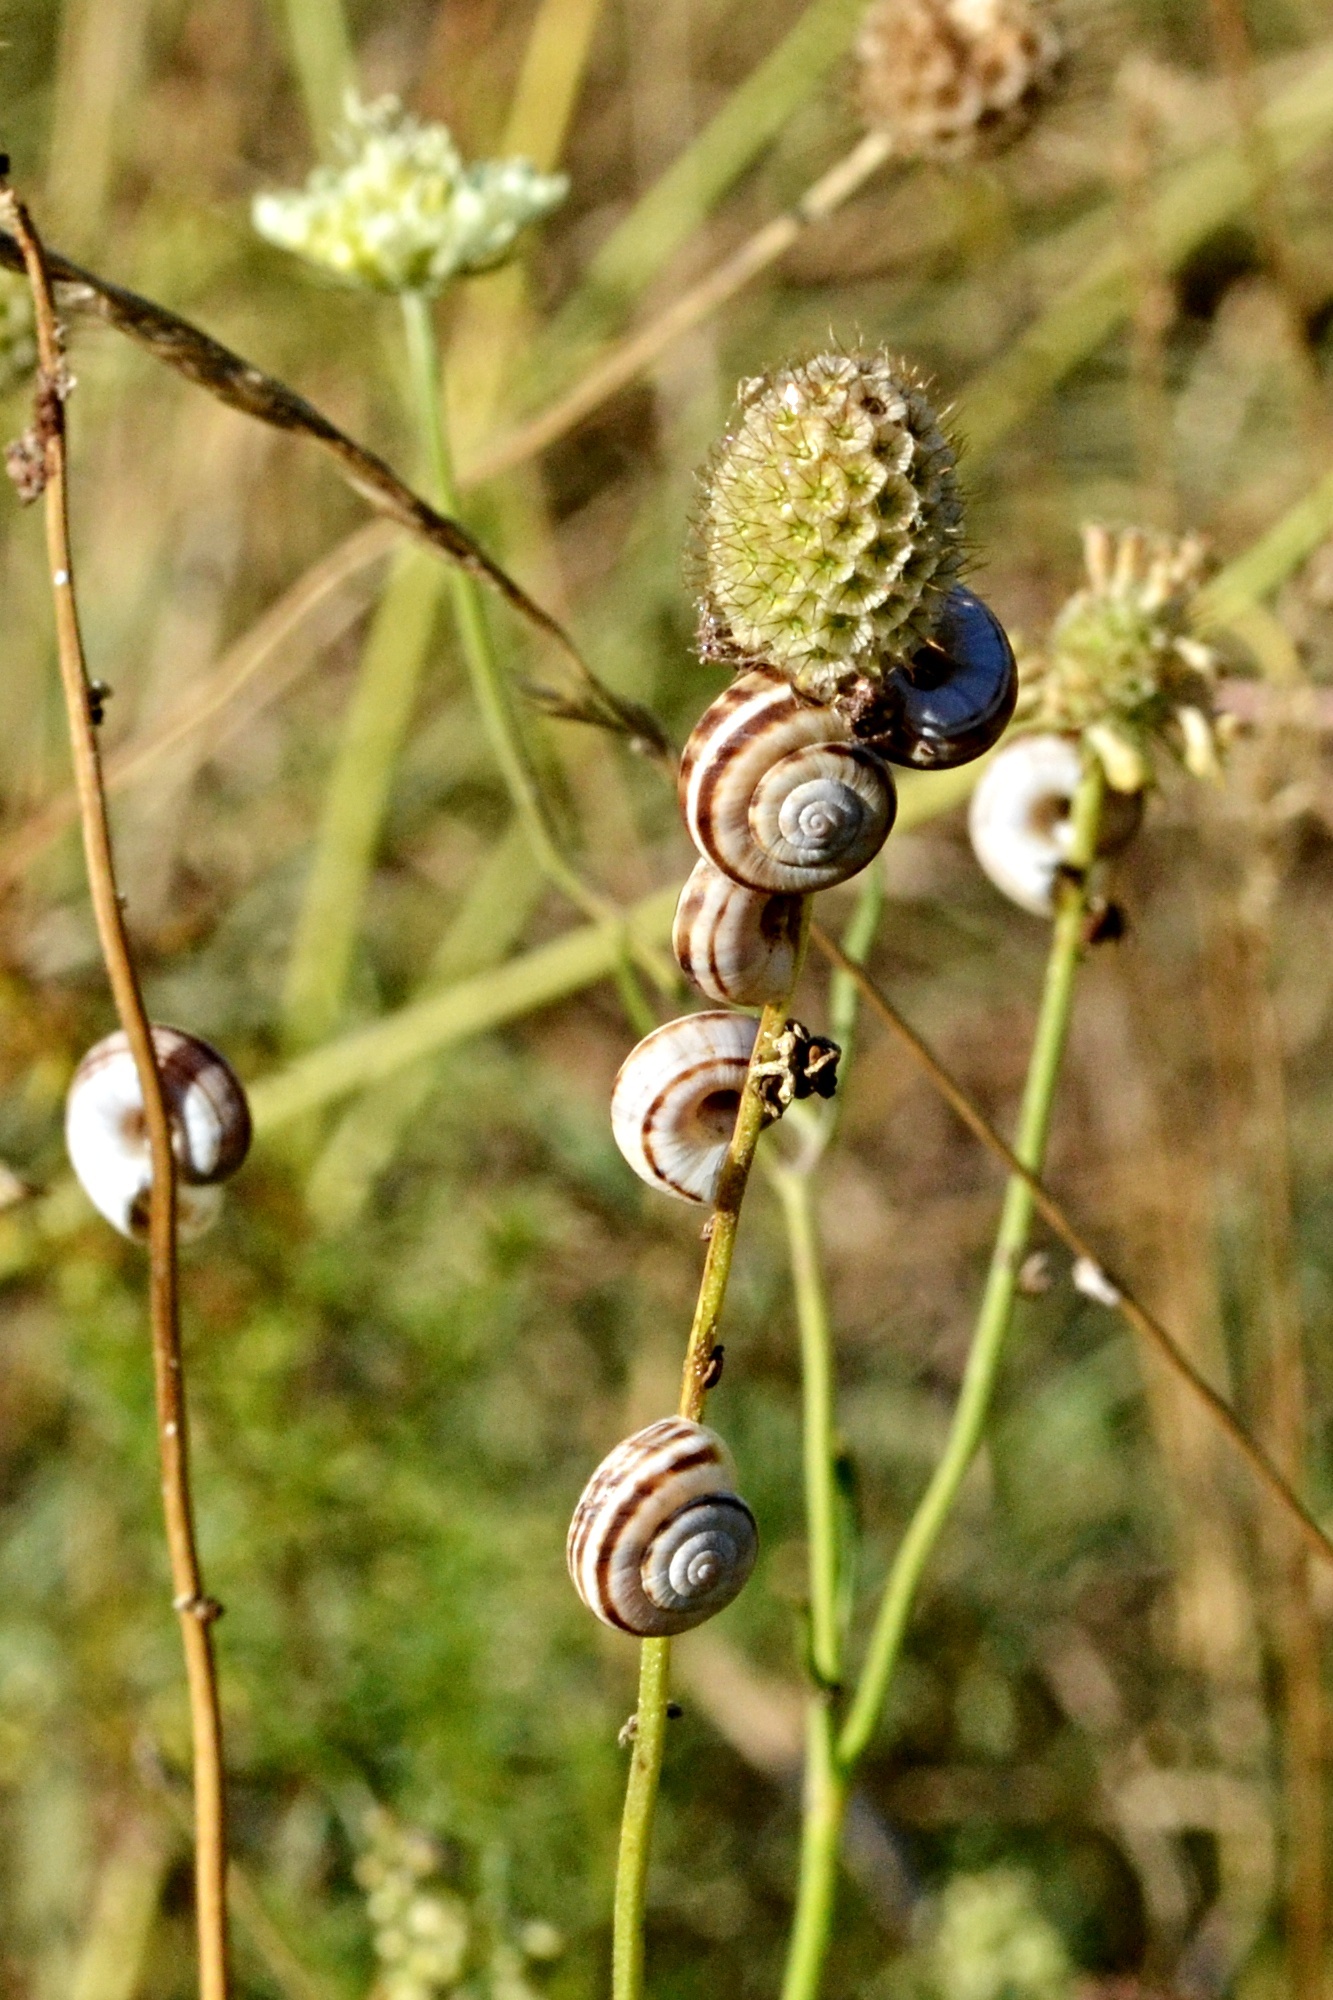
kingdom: Animalia
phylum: Mollusca
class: Gastropoda
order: Stylommatophora
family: Geomitridae
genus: Xerolenta
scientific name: Xerolenta obvia
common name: White heath snail
